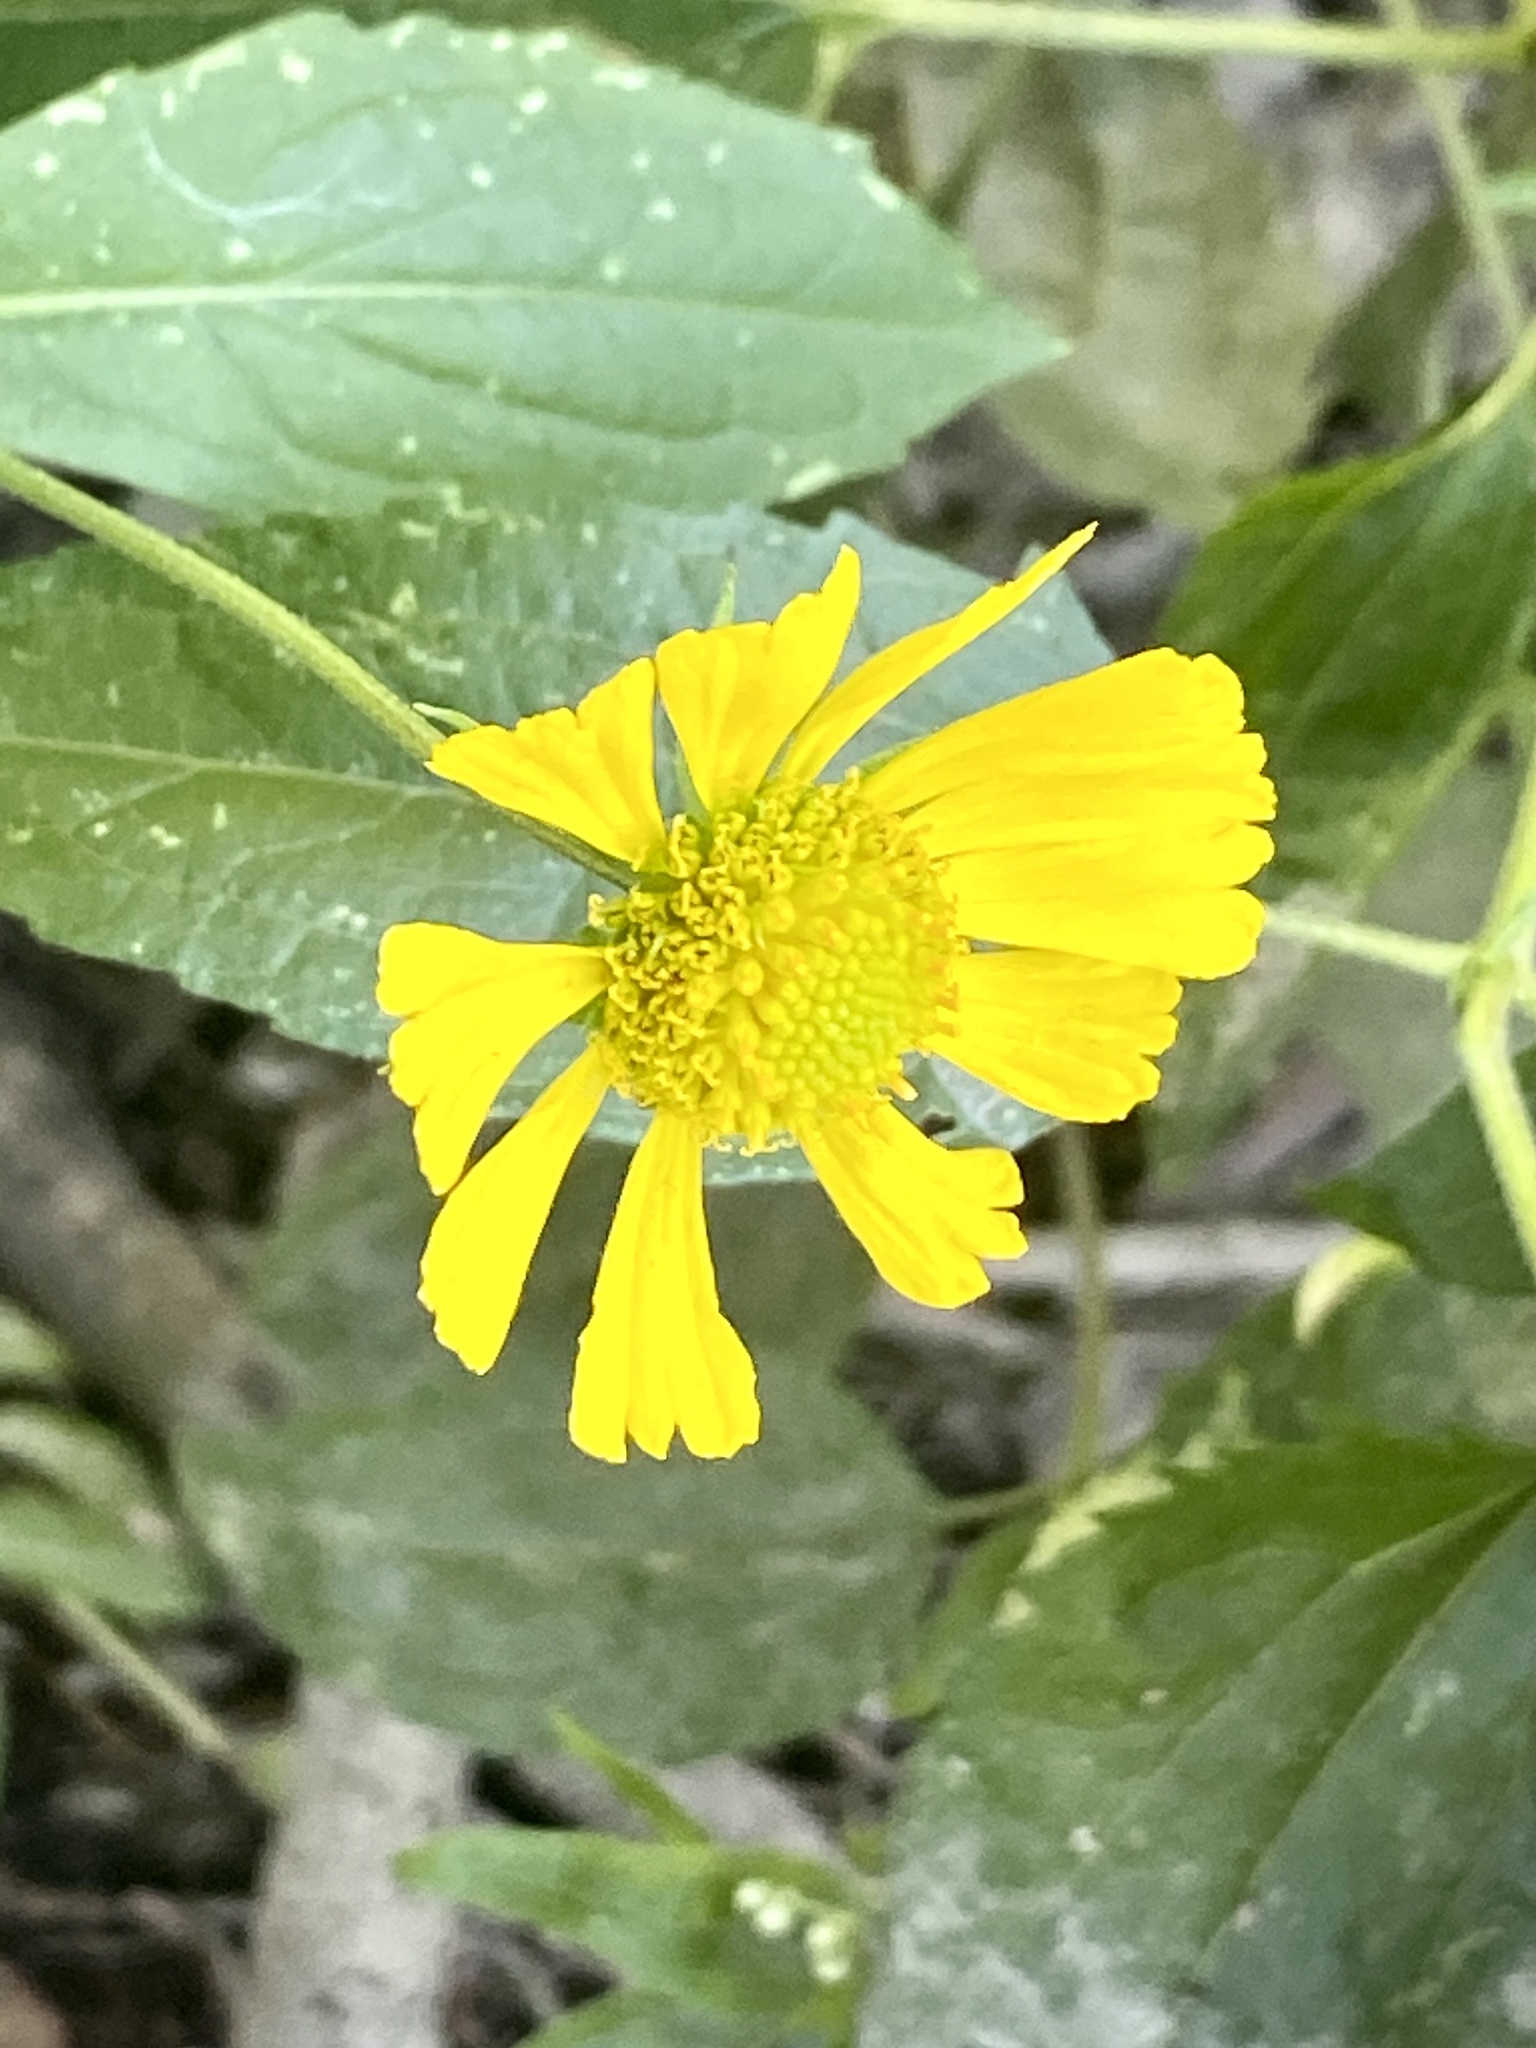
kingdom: Plantae
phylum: Tracheophyta
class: Magnoliopsida
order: Asterales
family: Asteraceae
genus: Helenium
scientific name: Helenium autumnale
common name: Sneezeweed
